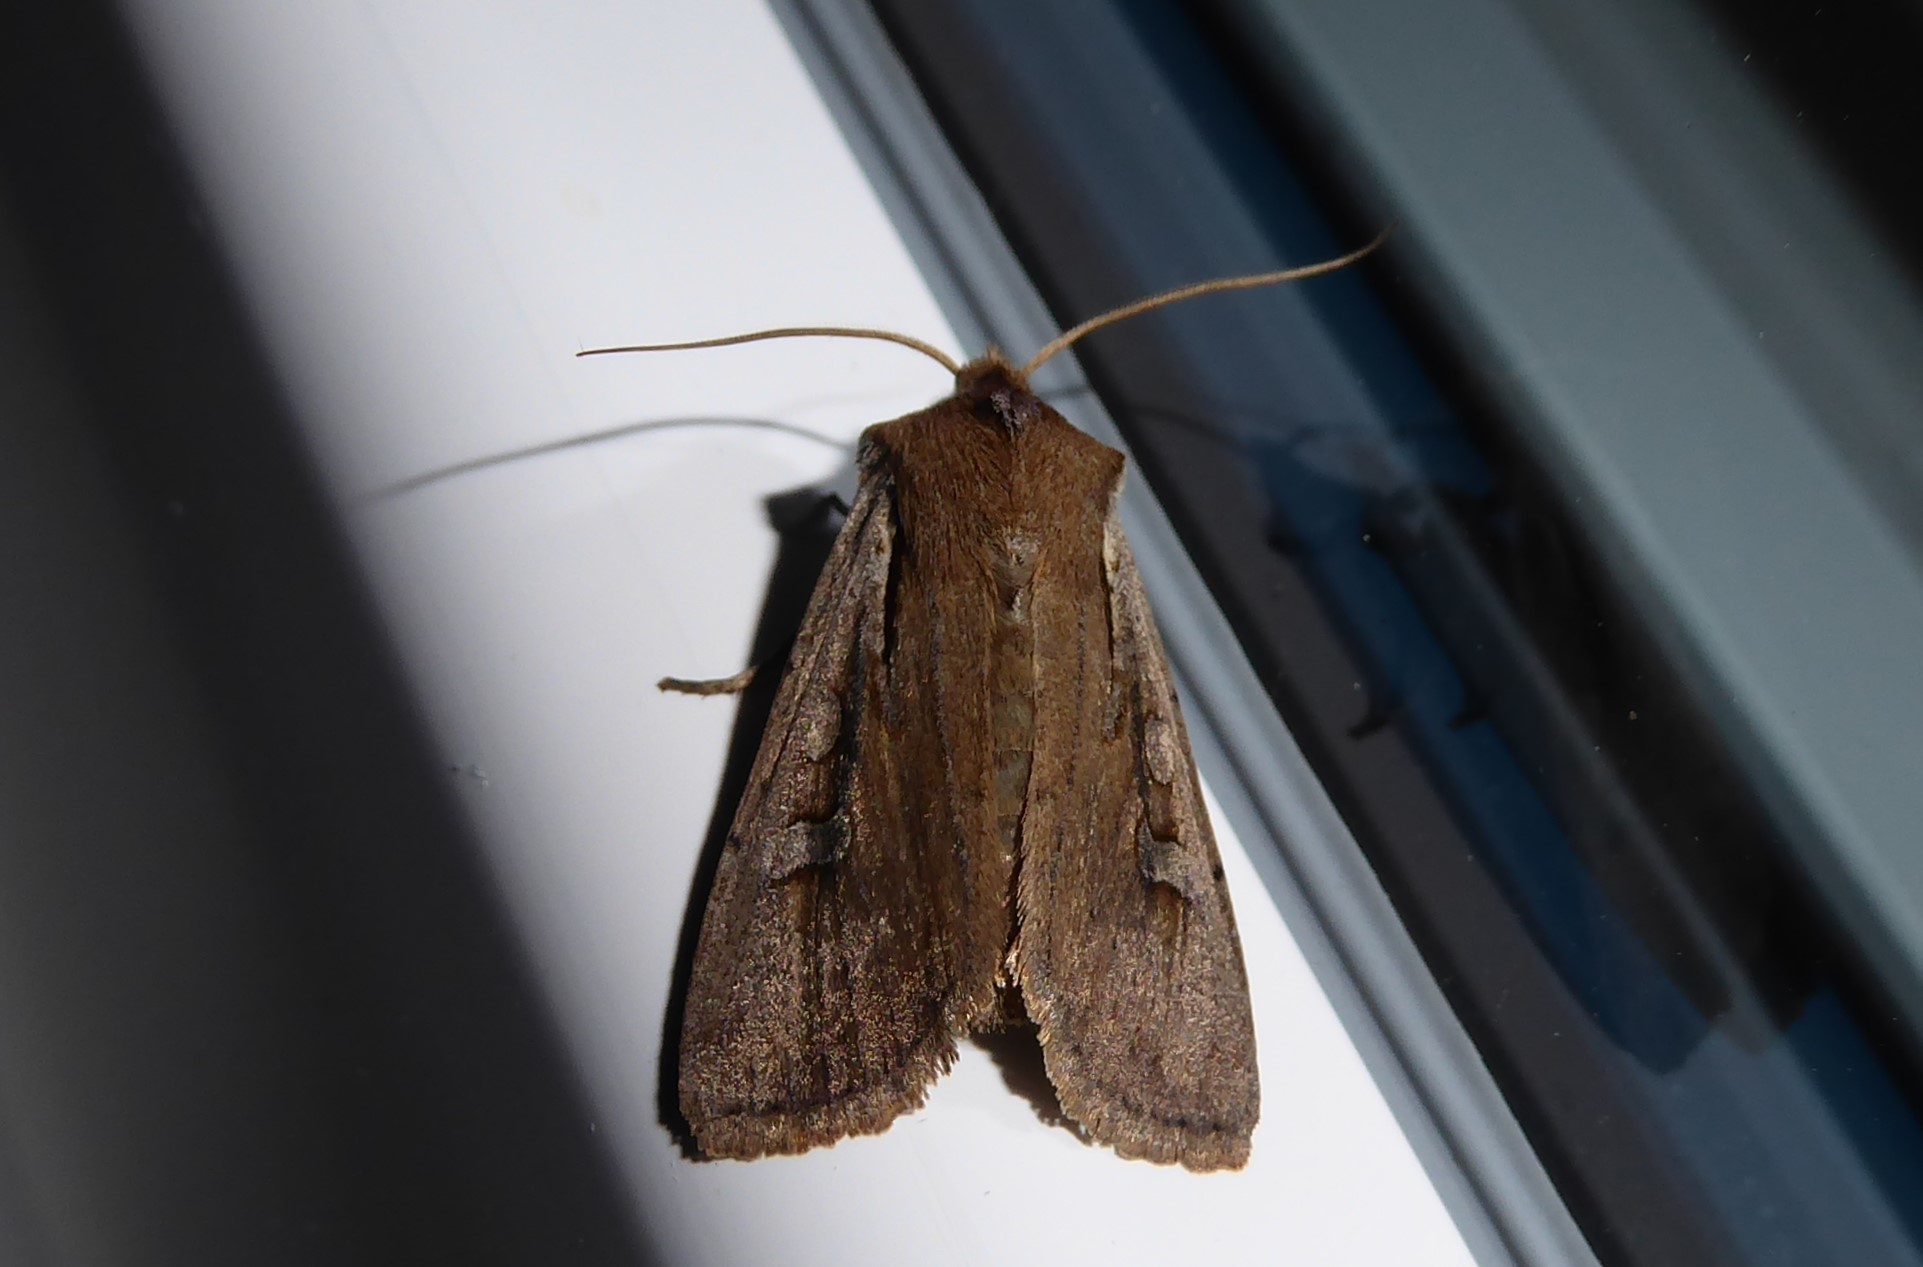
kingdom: Animalia
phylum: Arthropoda
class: Insecta
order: Lepidoptera
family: Noctuidae
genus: Ichneutica
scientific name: Ichneutica atristriga
